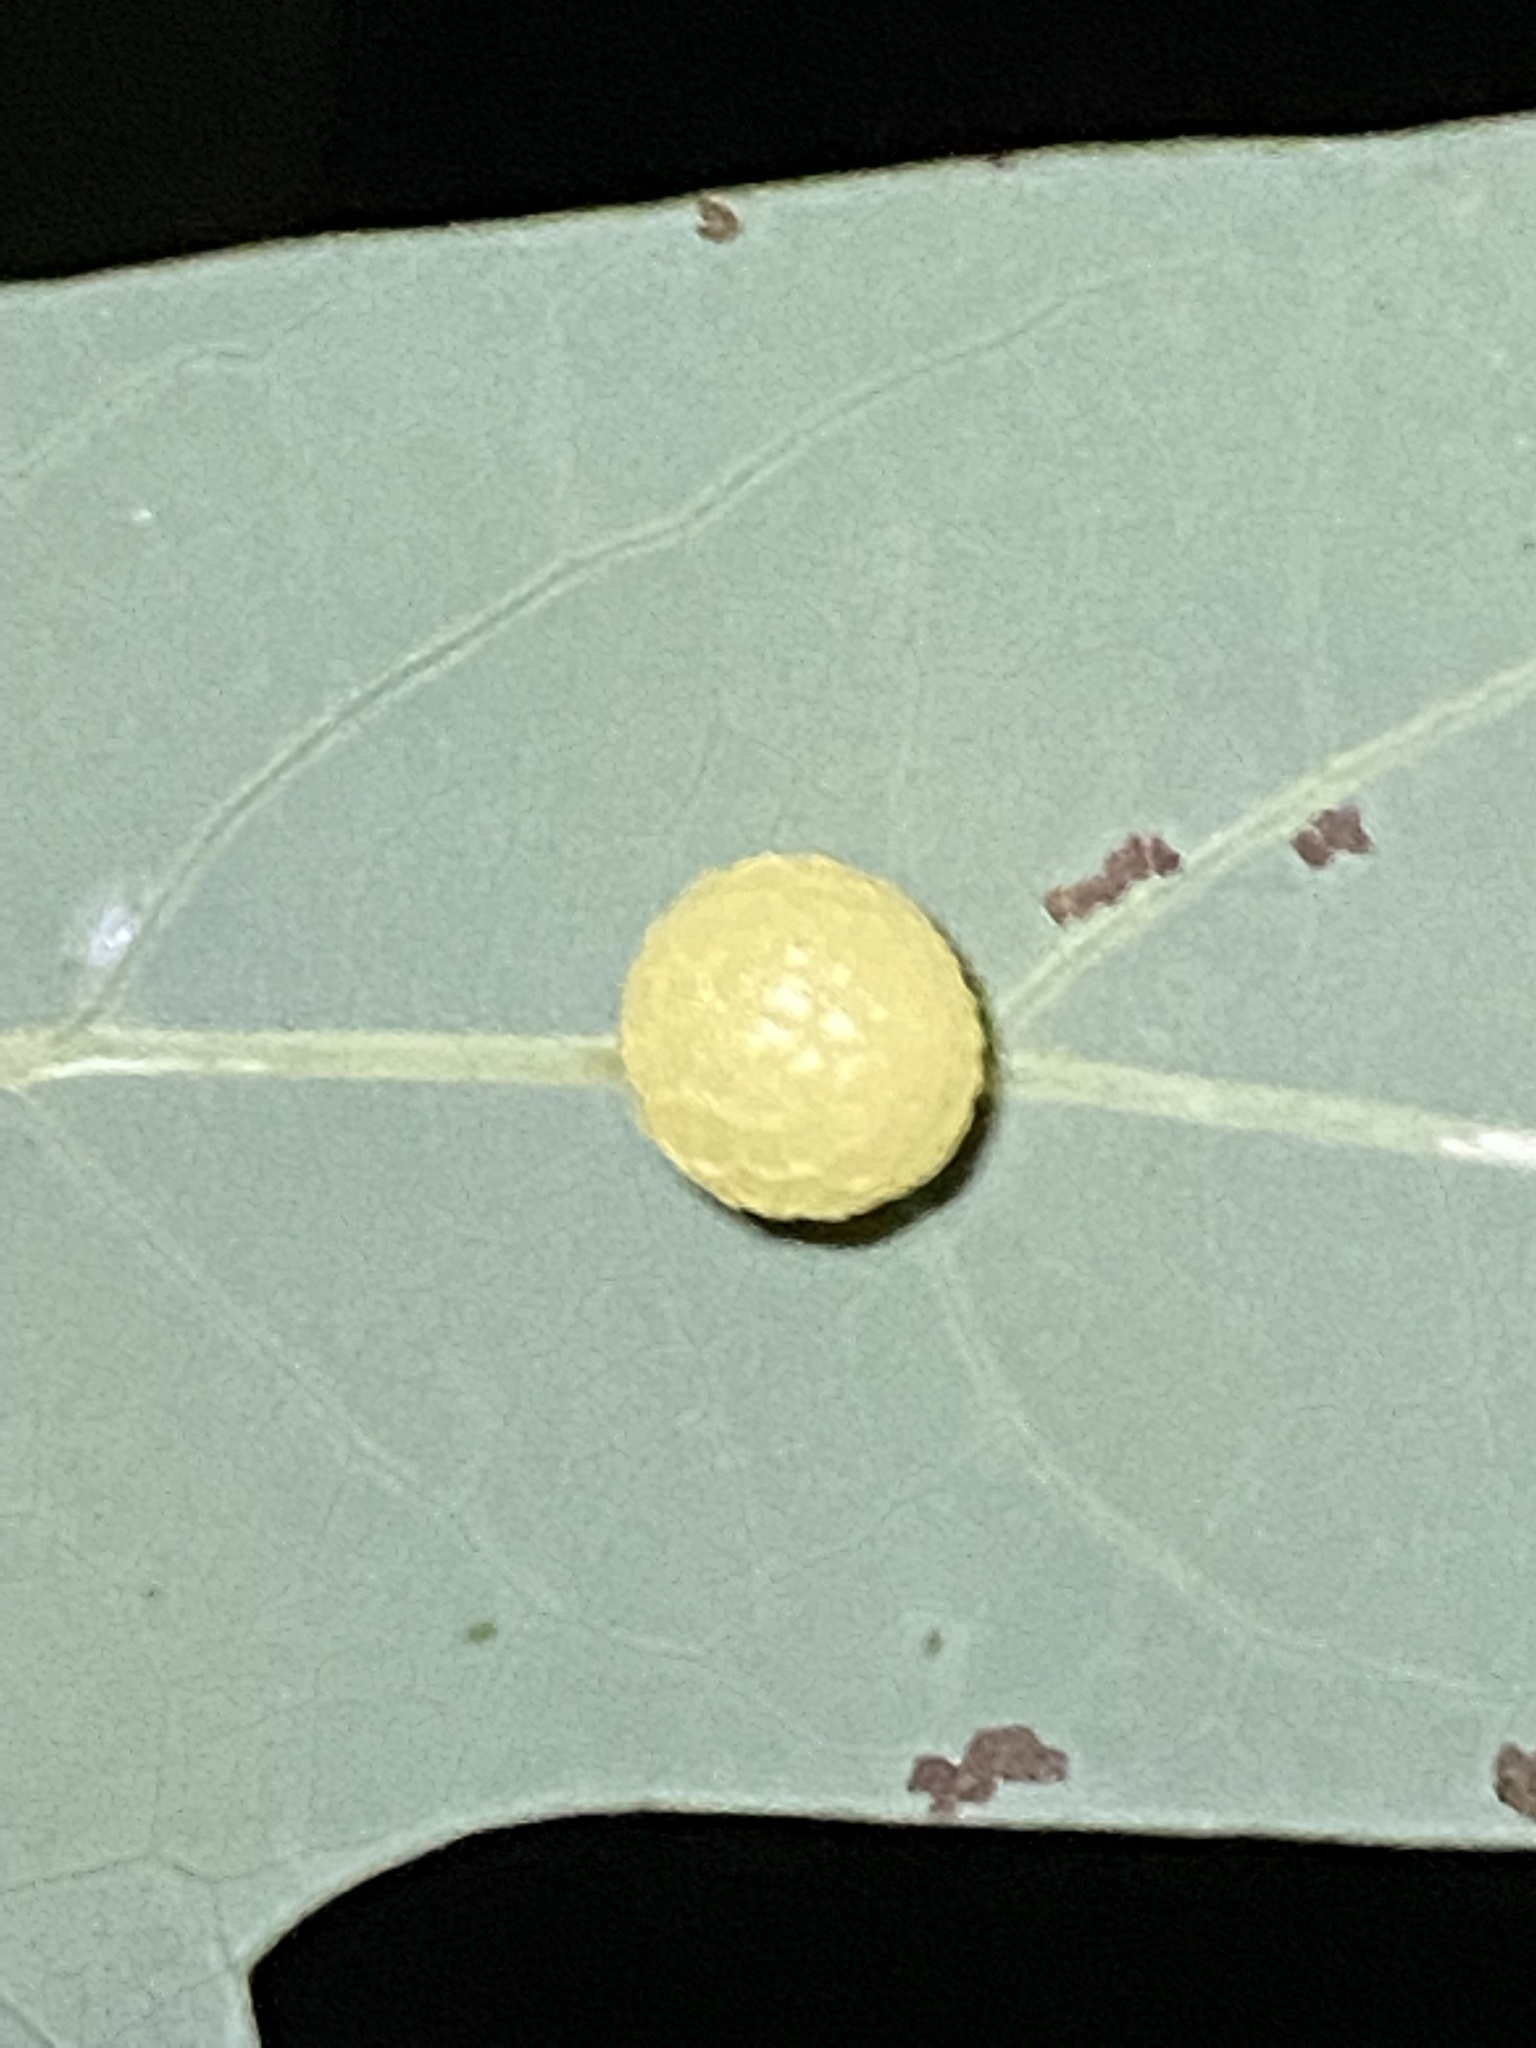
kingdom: Animalia
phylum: Arthropoda
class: Insecta
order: Hymenoptera
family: Cynipidae
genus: Acraspis
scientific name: Acraspis
